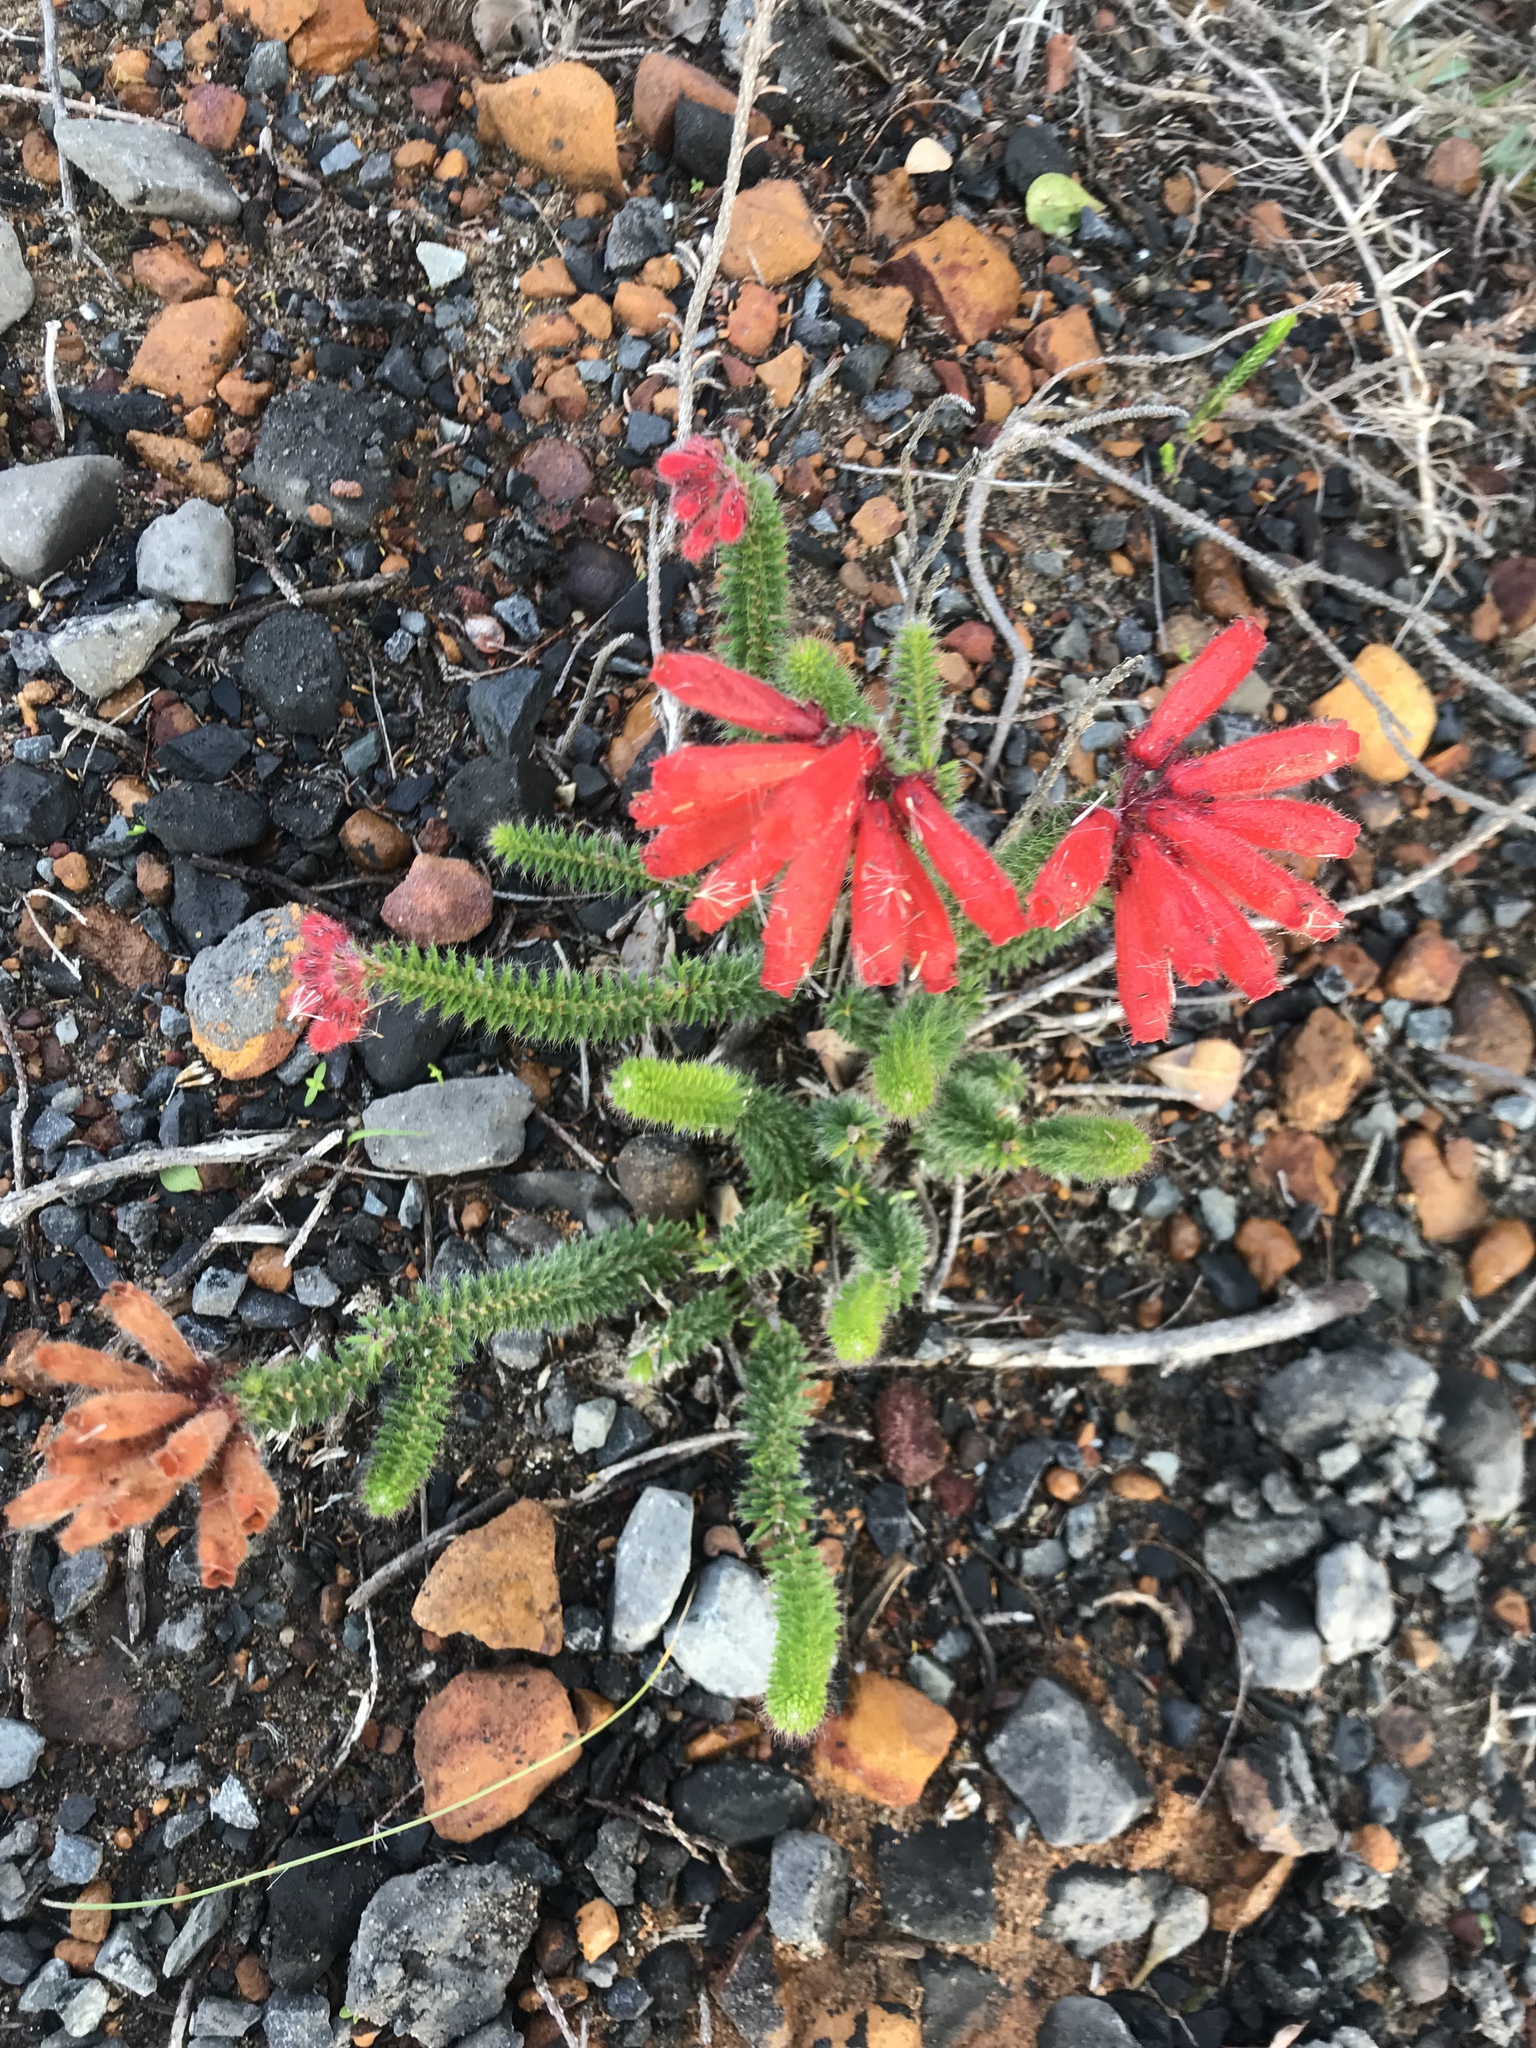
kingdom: Plantae
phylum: Tracheophyta
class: Magnoliopsida
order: Ericales
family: Ericaceae
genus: Erica
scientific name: Erica cerinthoides
